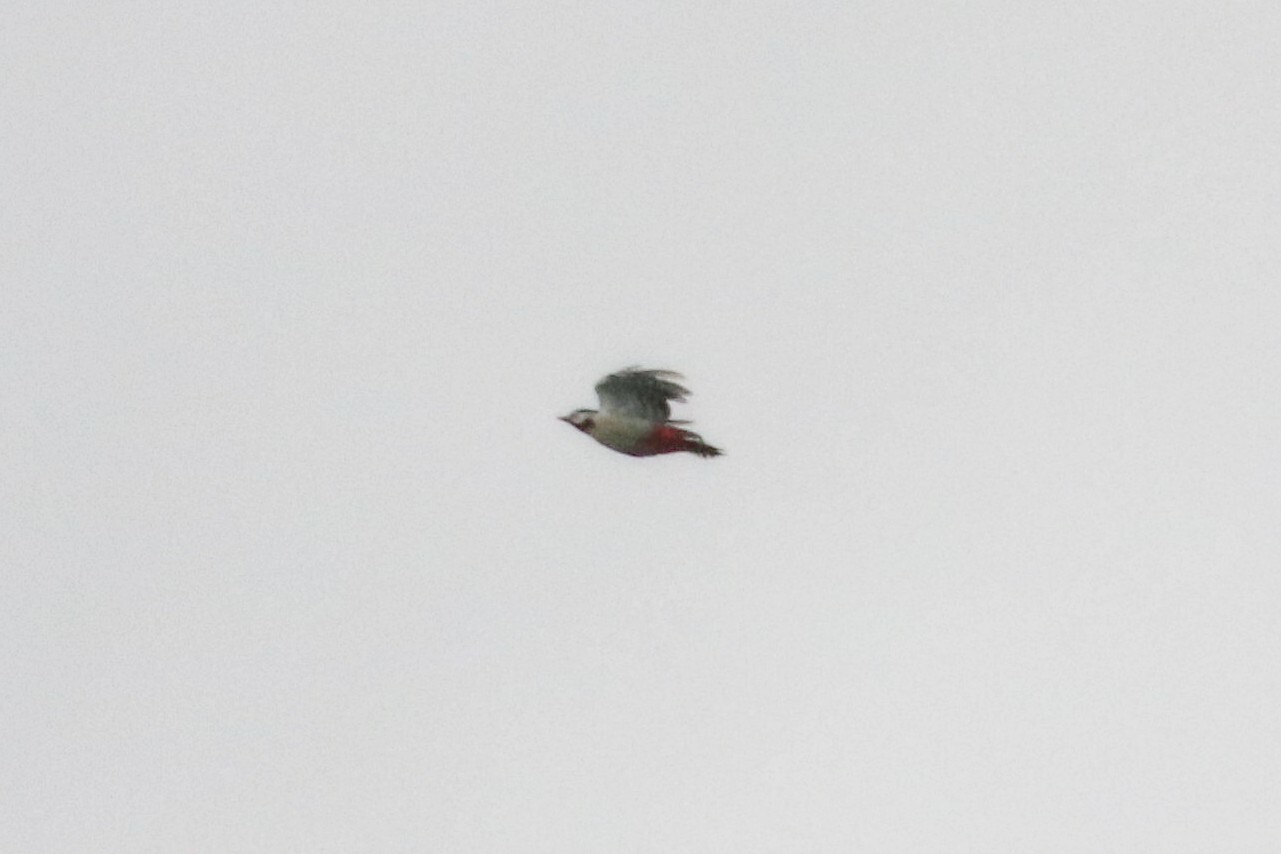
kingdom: Animalia
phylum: Chordata
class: Aves
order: Piciformes
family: Picidae
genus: Dendrocopos
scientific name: Dendrocopos major
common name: Great spotted woodpecker
